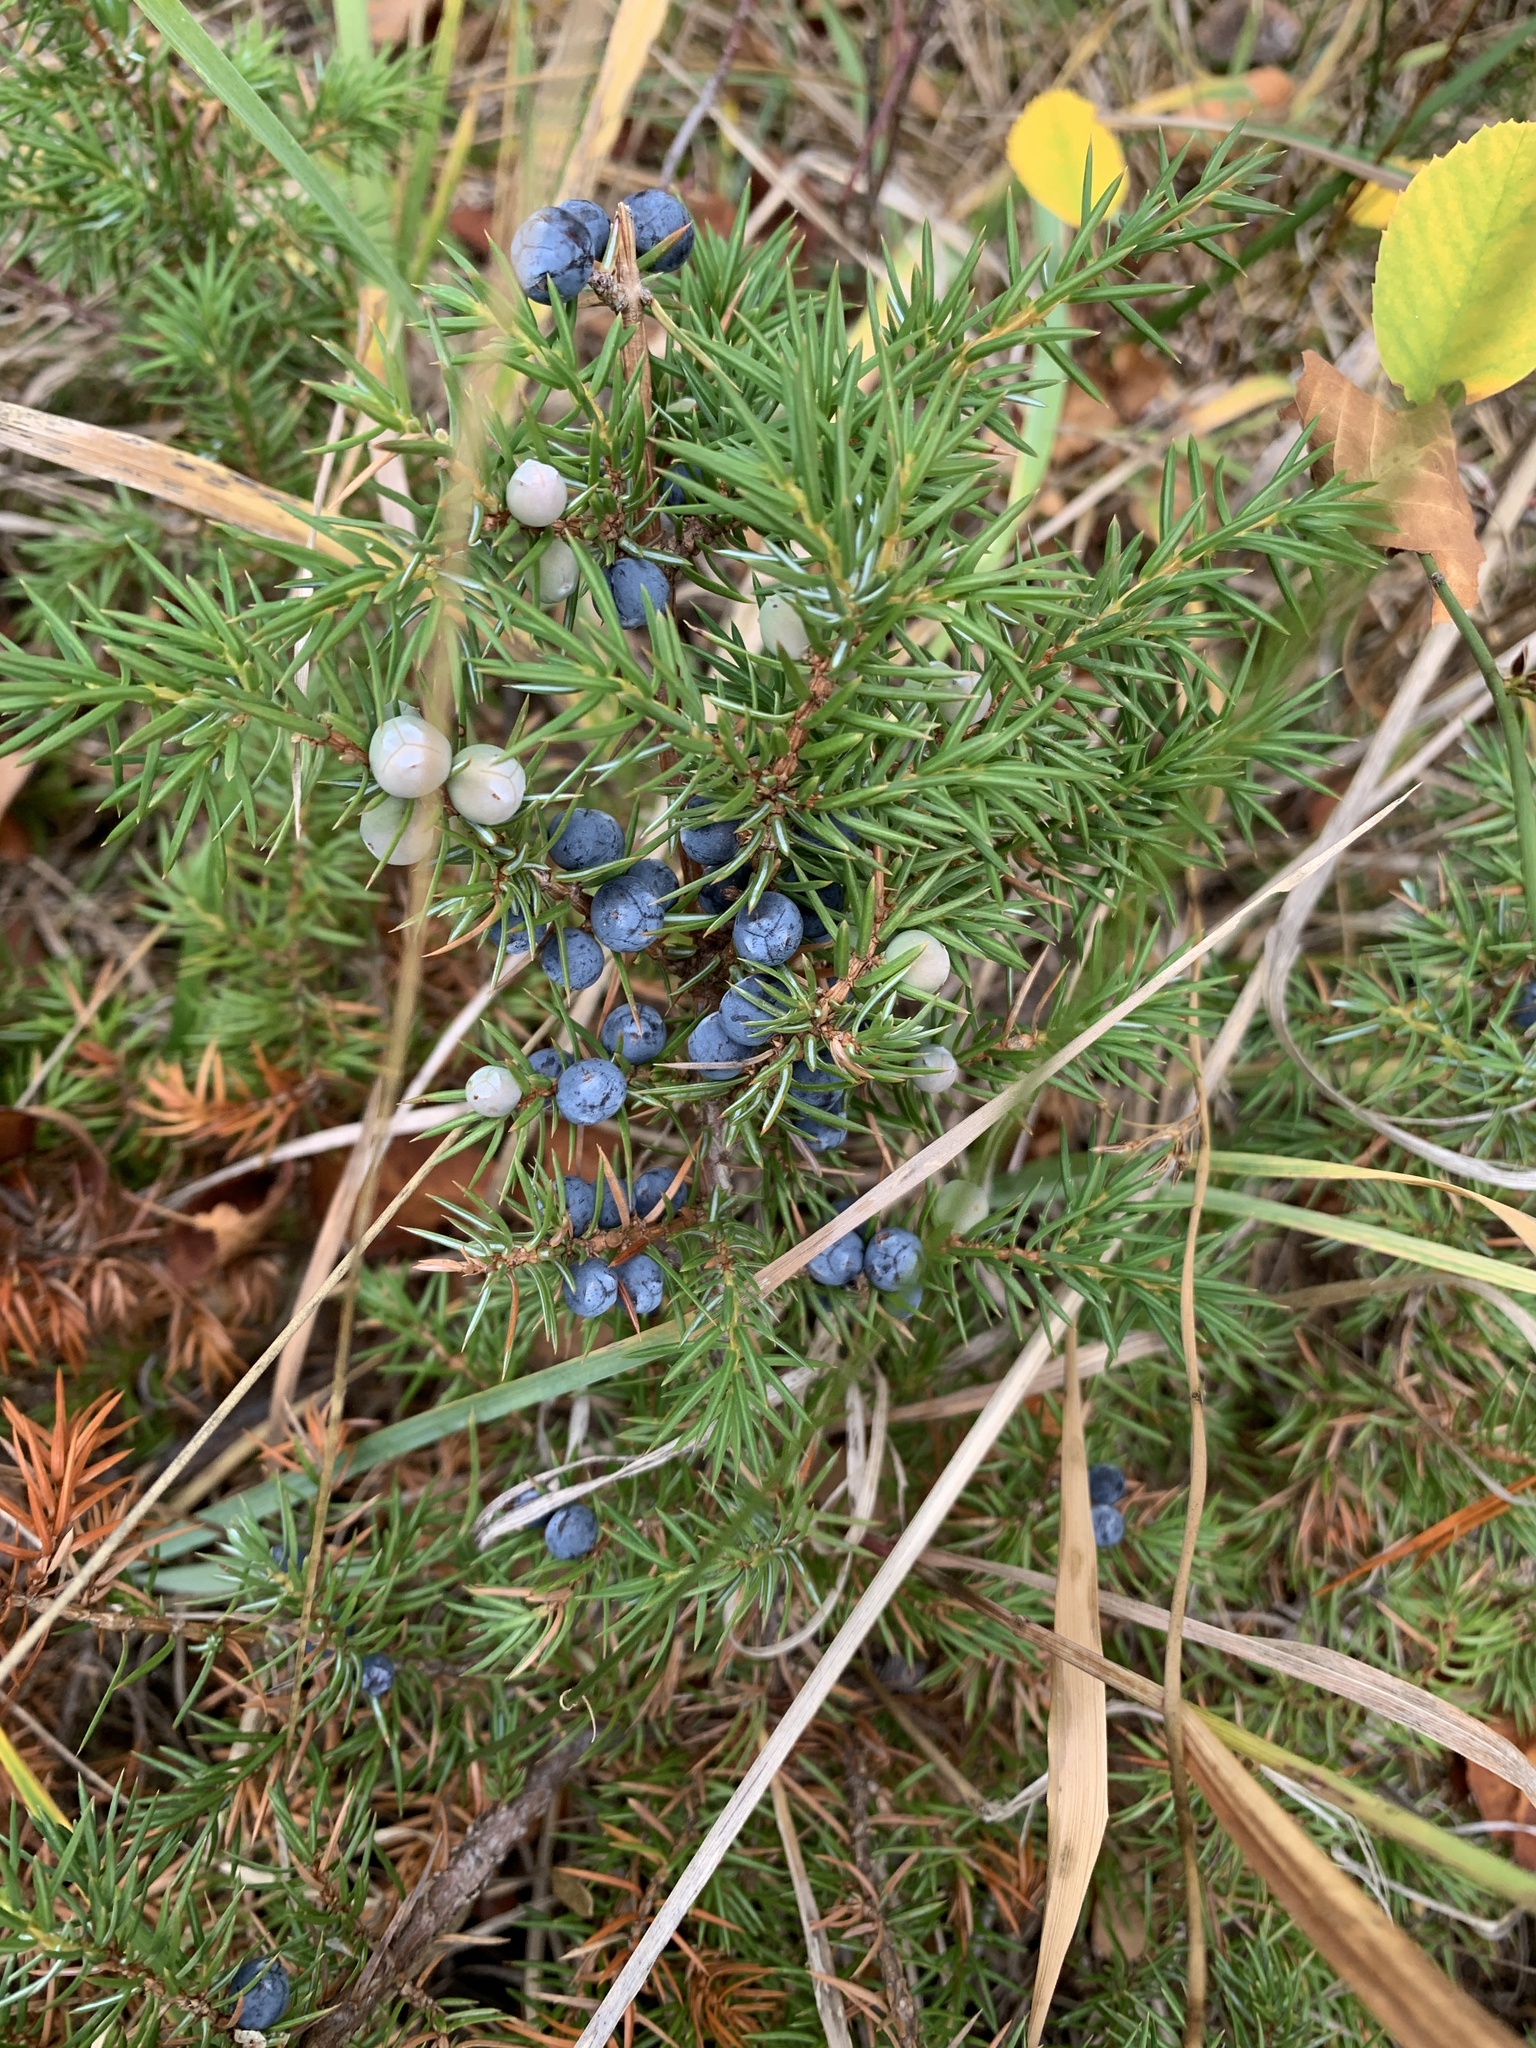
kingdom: Plantae
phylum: Tracheophyta
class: Pinopsida
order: Pinales
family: Cupressaceae
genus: Juniperus
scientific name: Juniperus communis
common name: Common juniper
